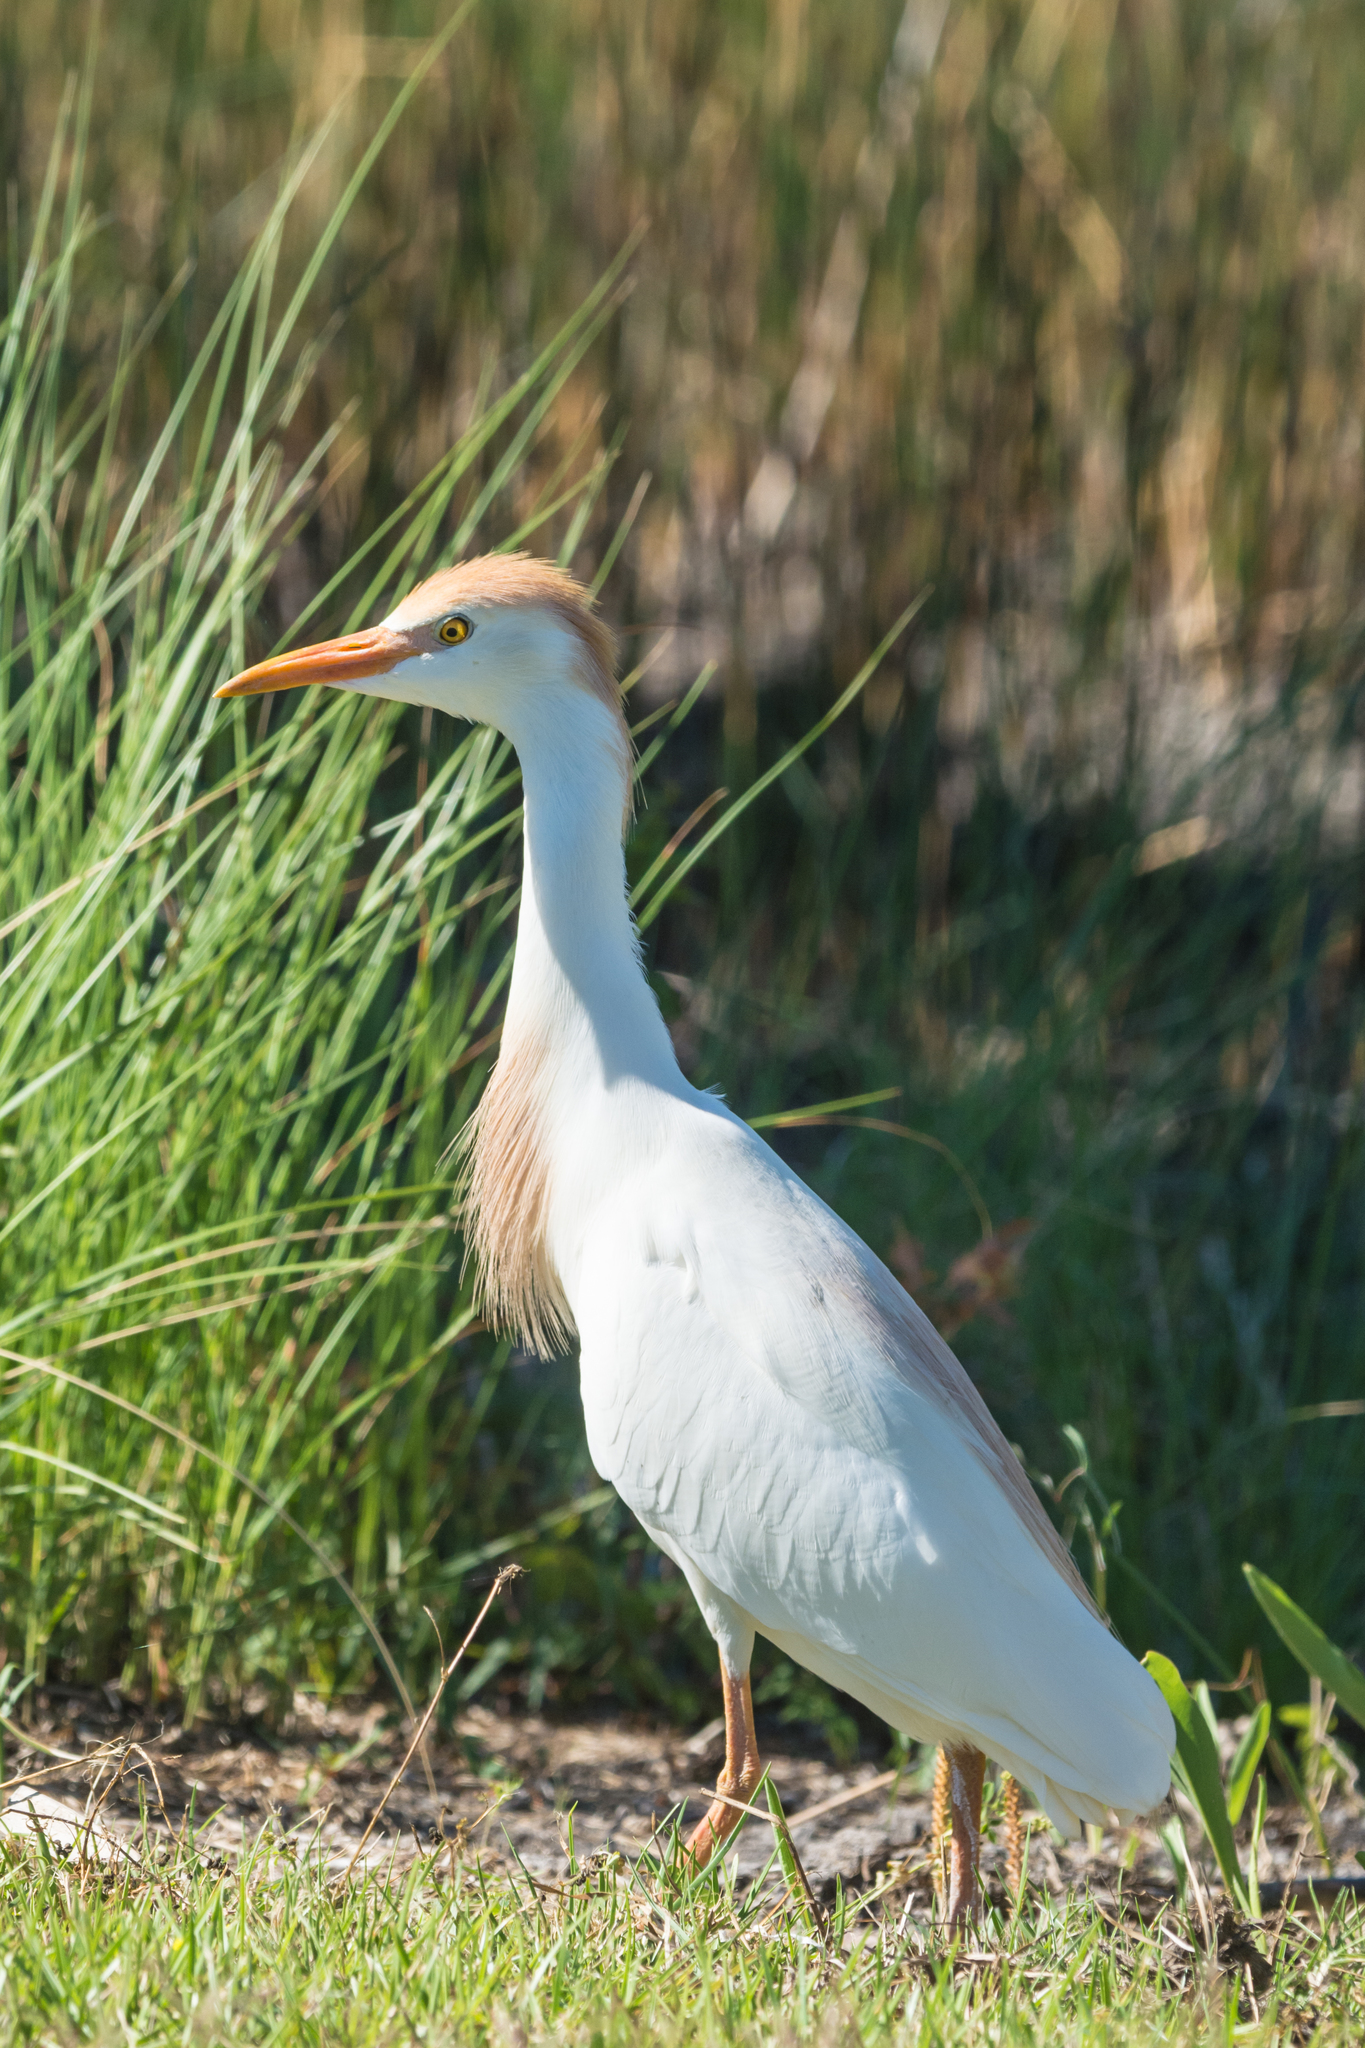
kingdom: Animalia
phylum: Chordata
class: Aves
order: Pelecaniformes
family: Ardeidae
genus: Bubulcus
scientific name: Bubulcus ibis
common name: Cattle egret
